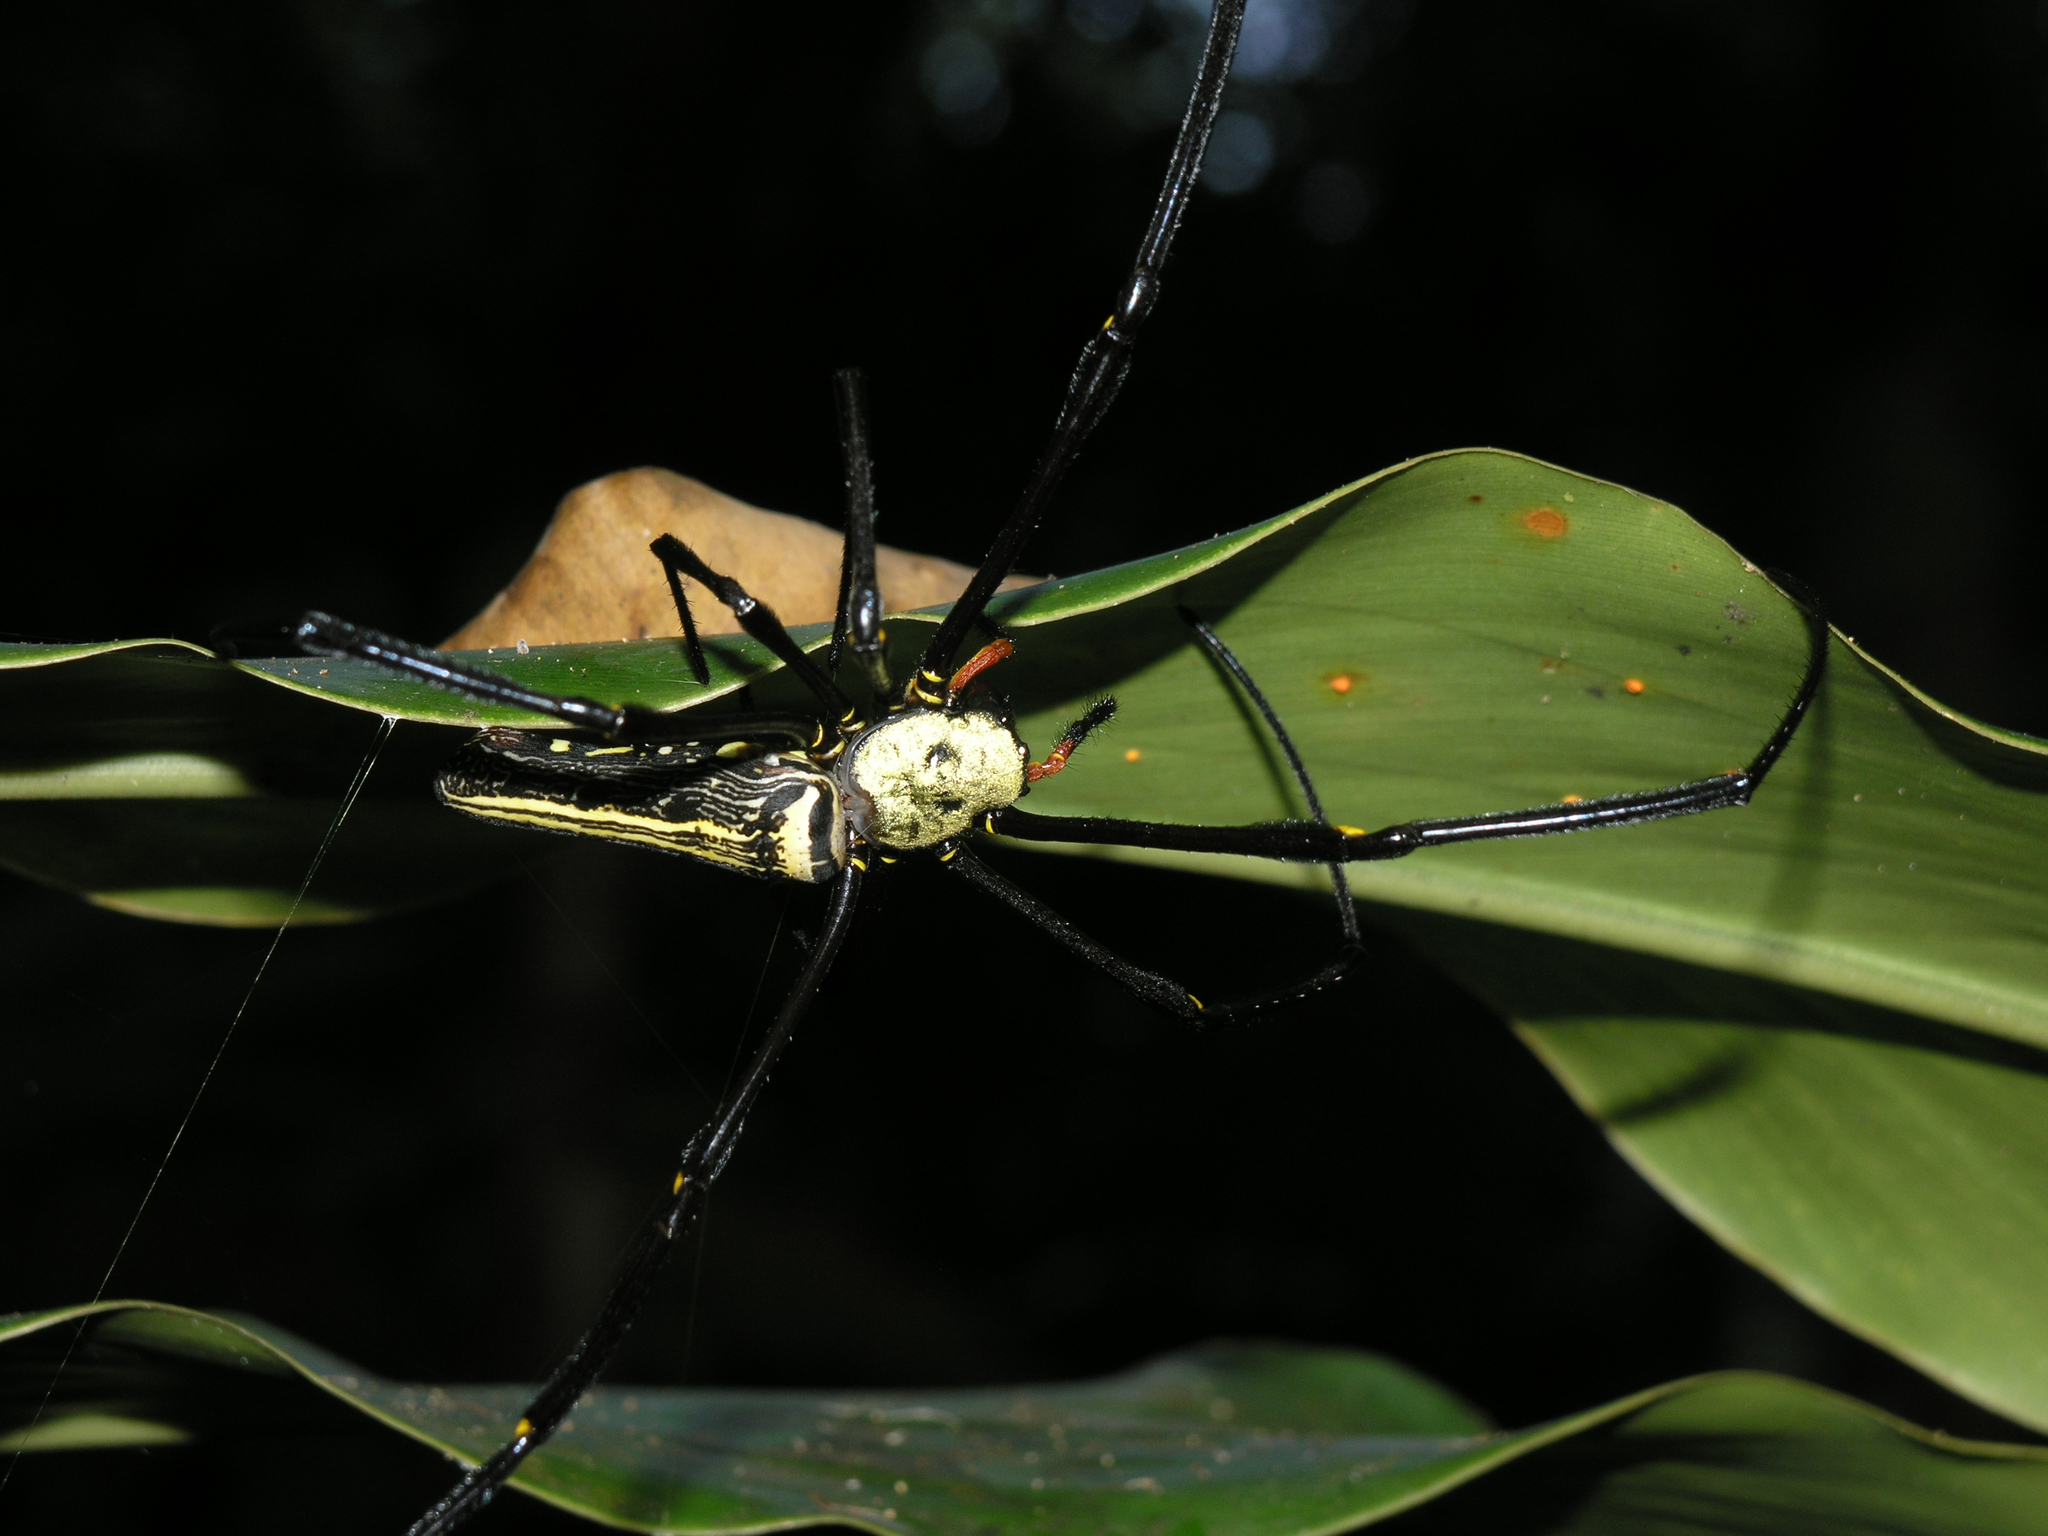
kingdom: Animalia
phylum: Arthropoda
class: Arachnida
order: Araneae
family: Araneidae
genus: Nephila
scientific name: Nephila pilipes
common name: Giant golden orb weaver
